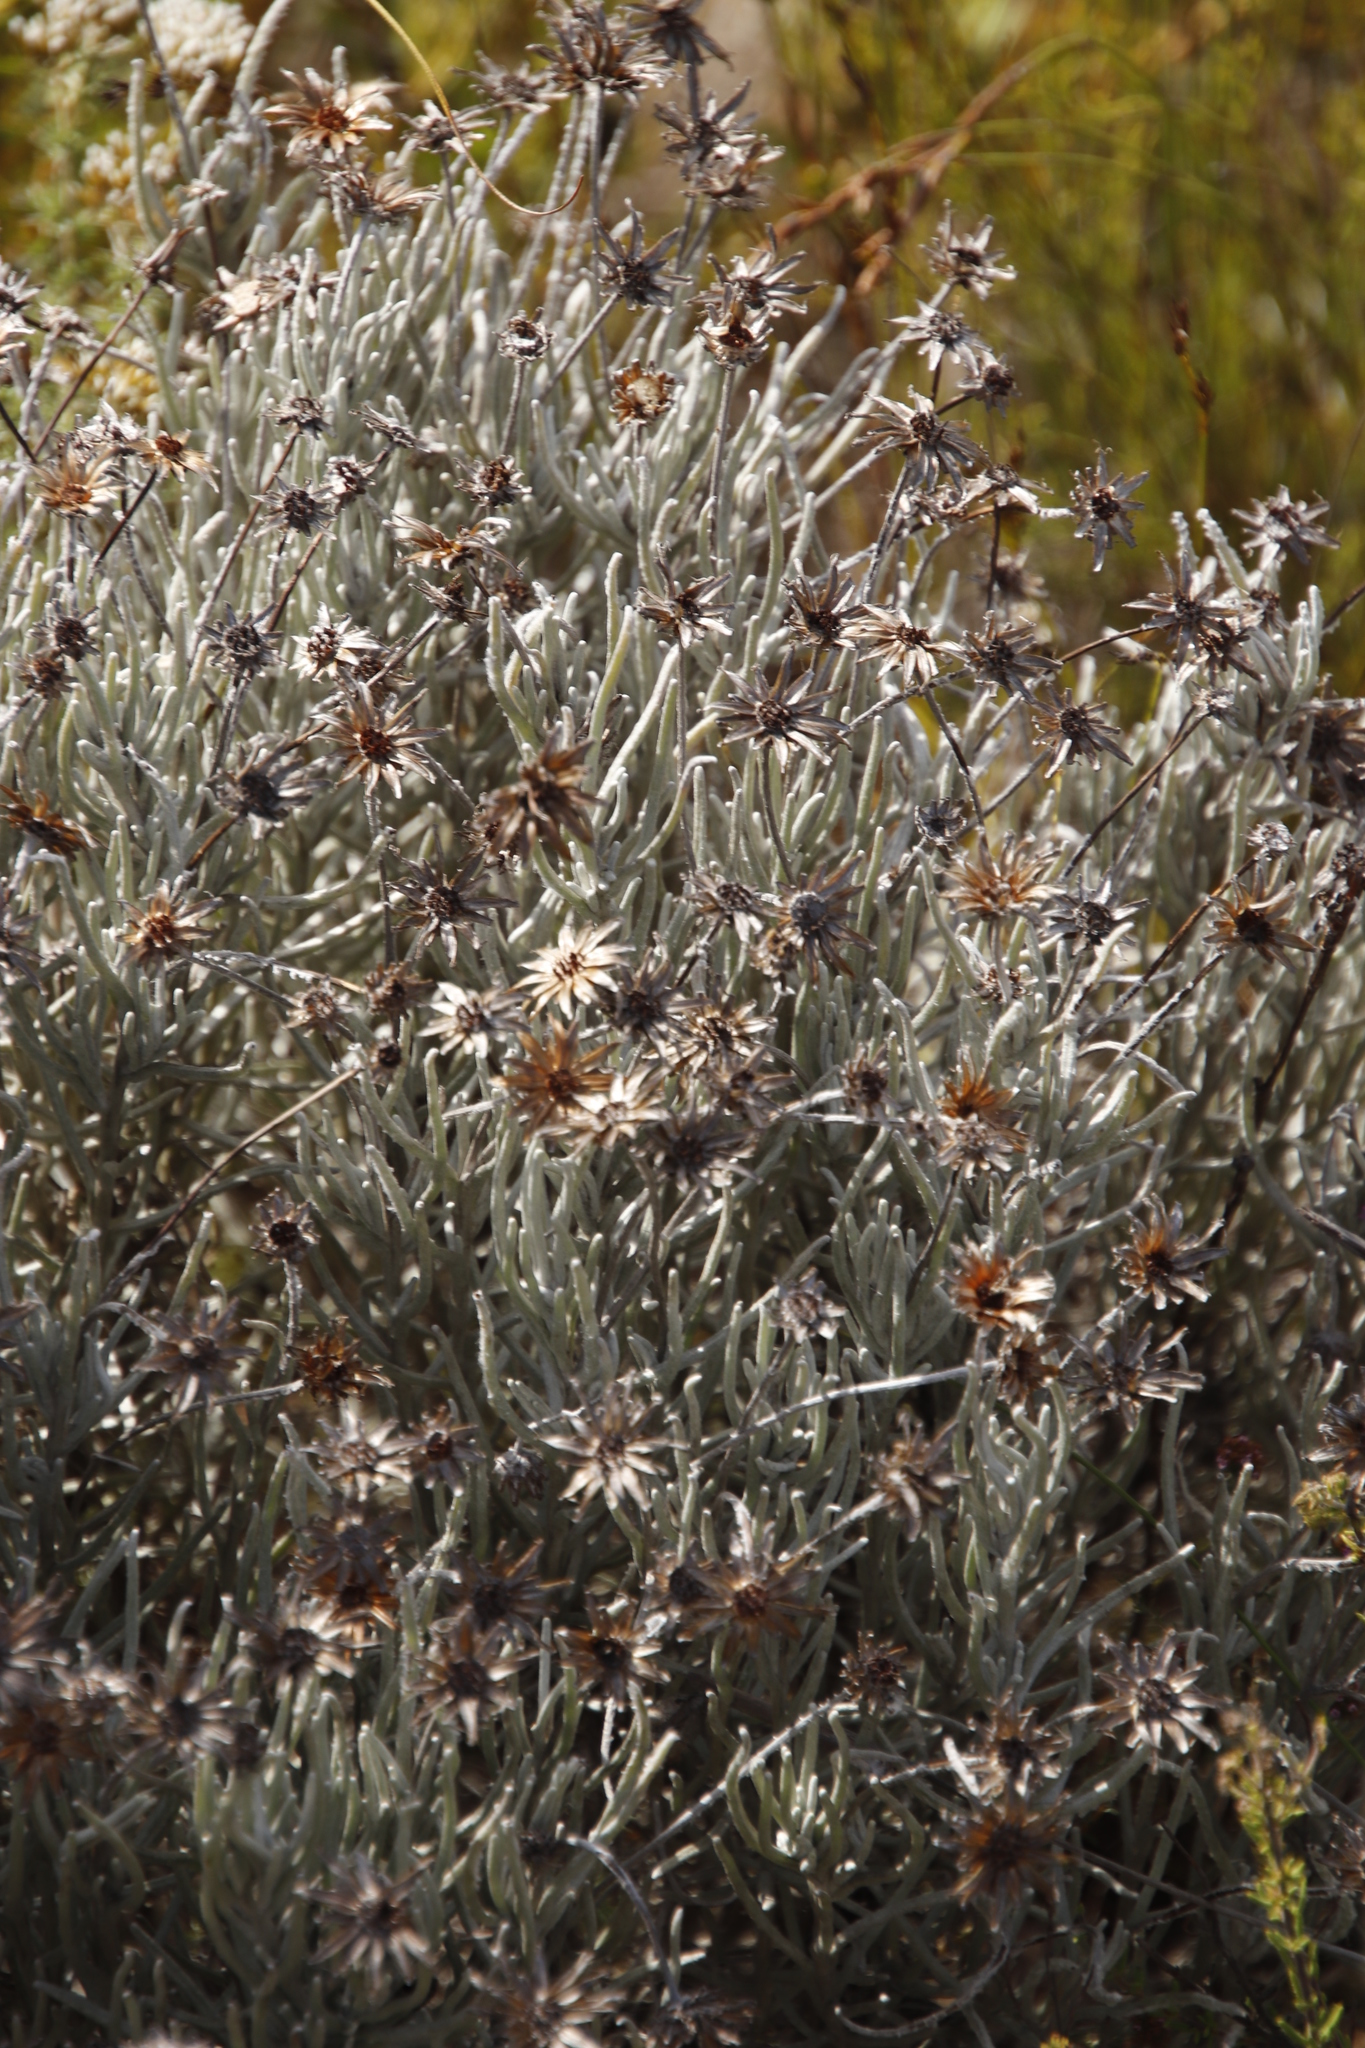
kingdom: Plantae
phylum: Tracheophyta
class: Magnoliopsida
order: Asterales
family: Asteraceae
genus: Syncarpha
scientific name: Syncarpha gnaphaloides
